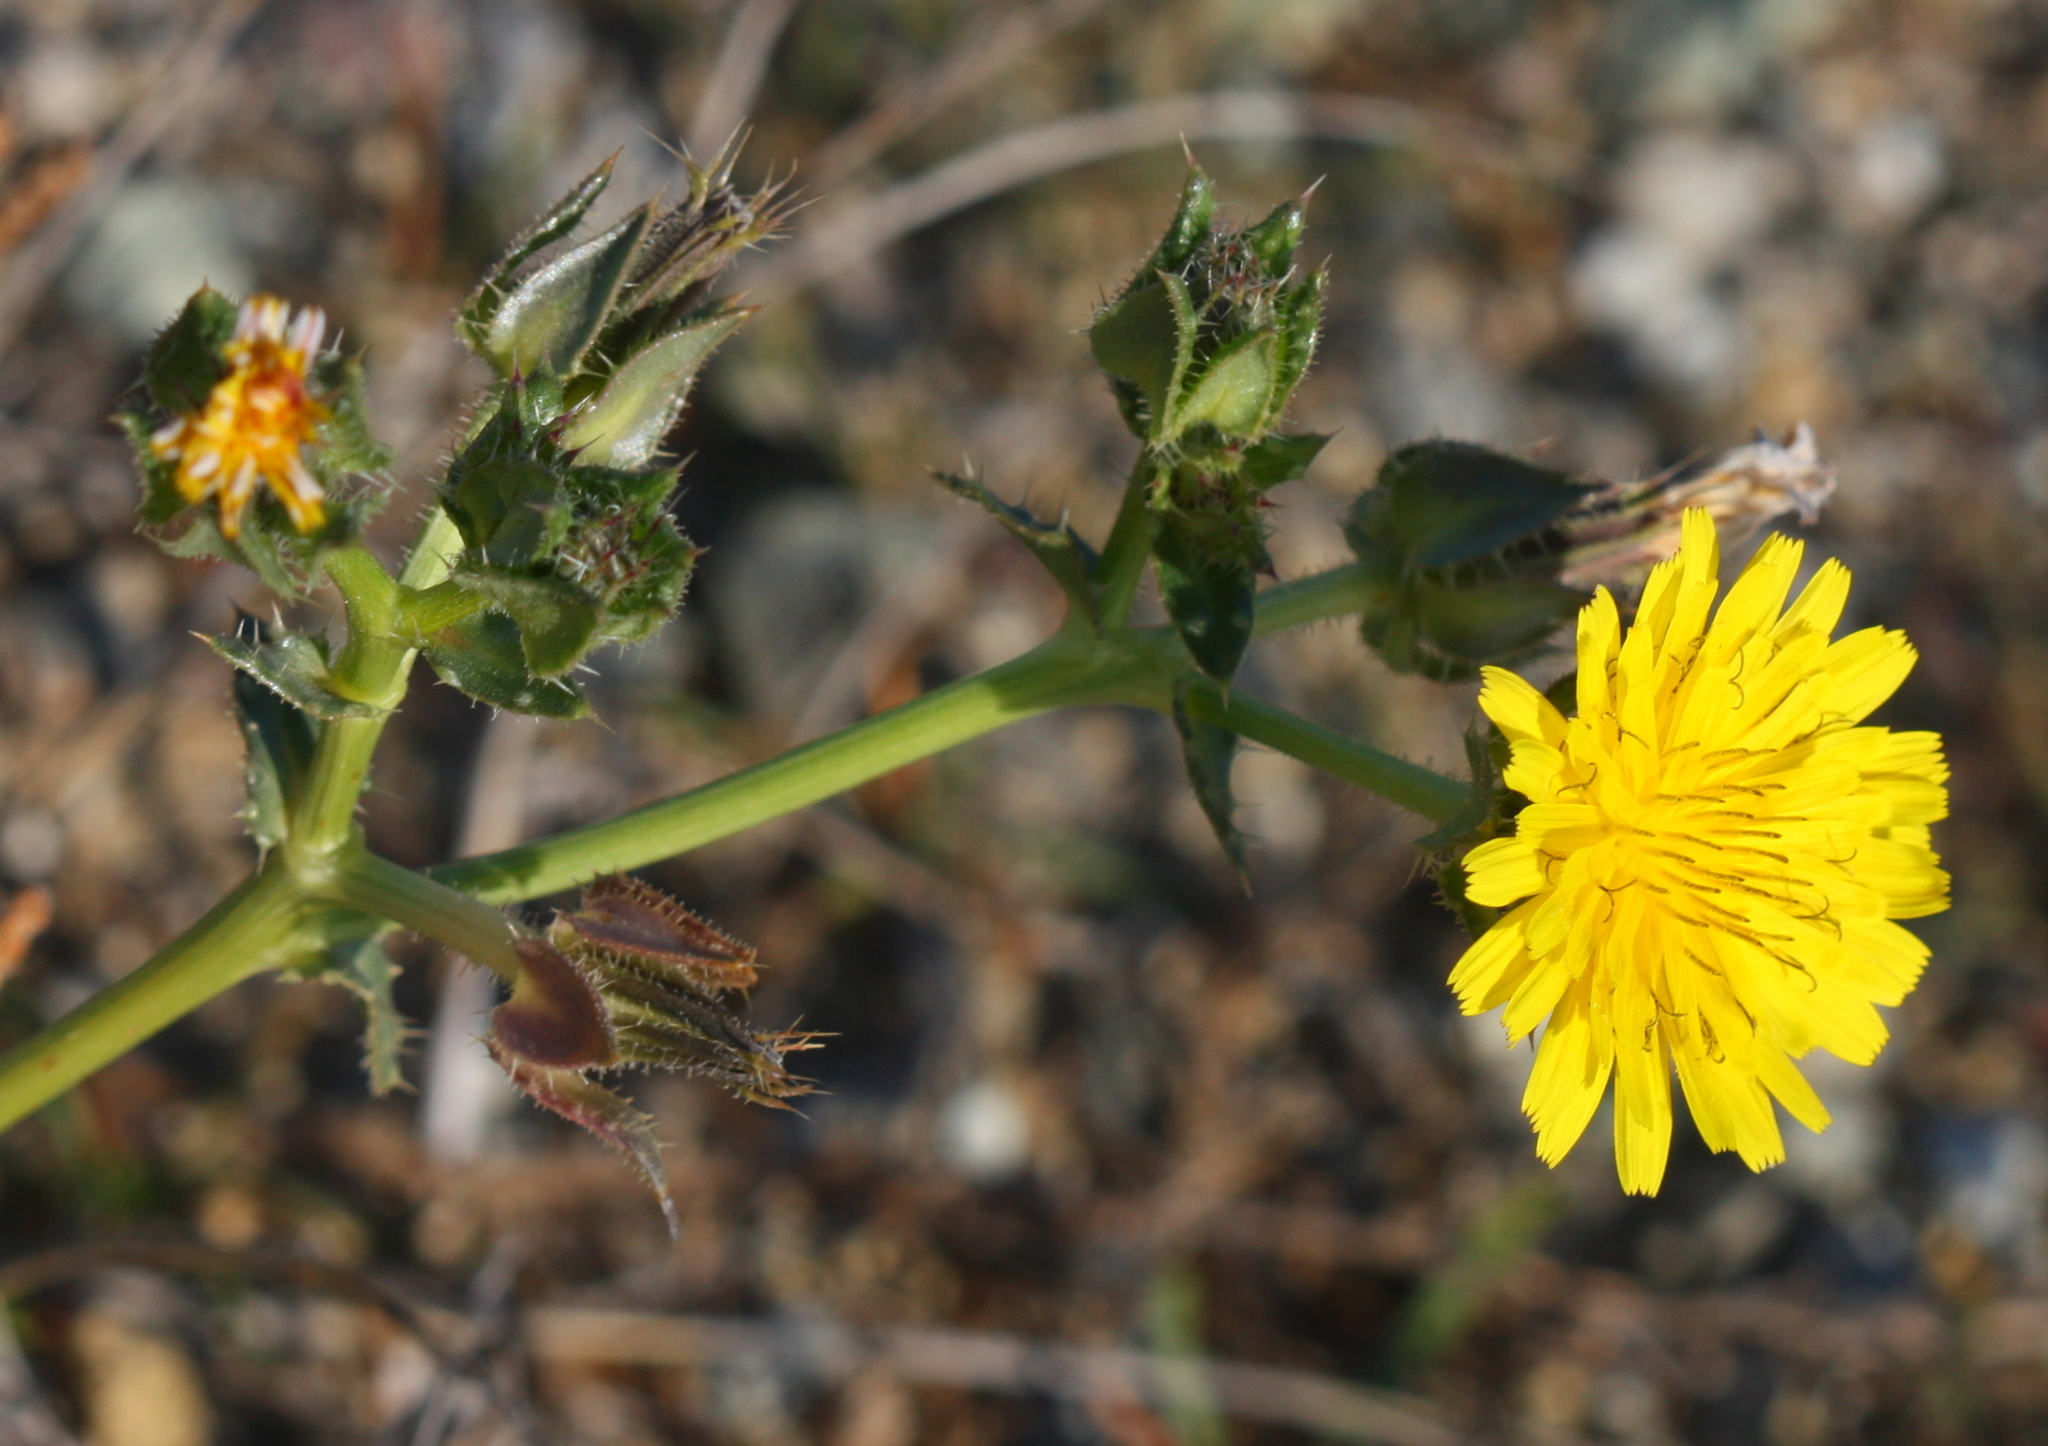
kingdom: Plantae
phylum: Tracheophyta
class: Magnoliopsida
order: Asterales
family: Asteraceae
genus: Helminthotheca
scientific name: Helminthotheca echioides
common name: Ox-tongue
